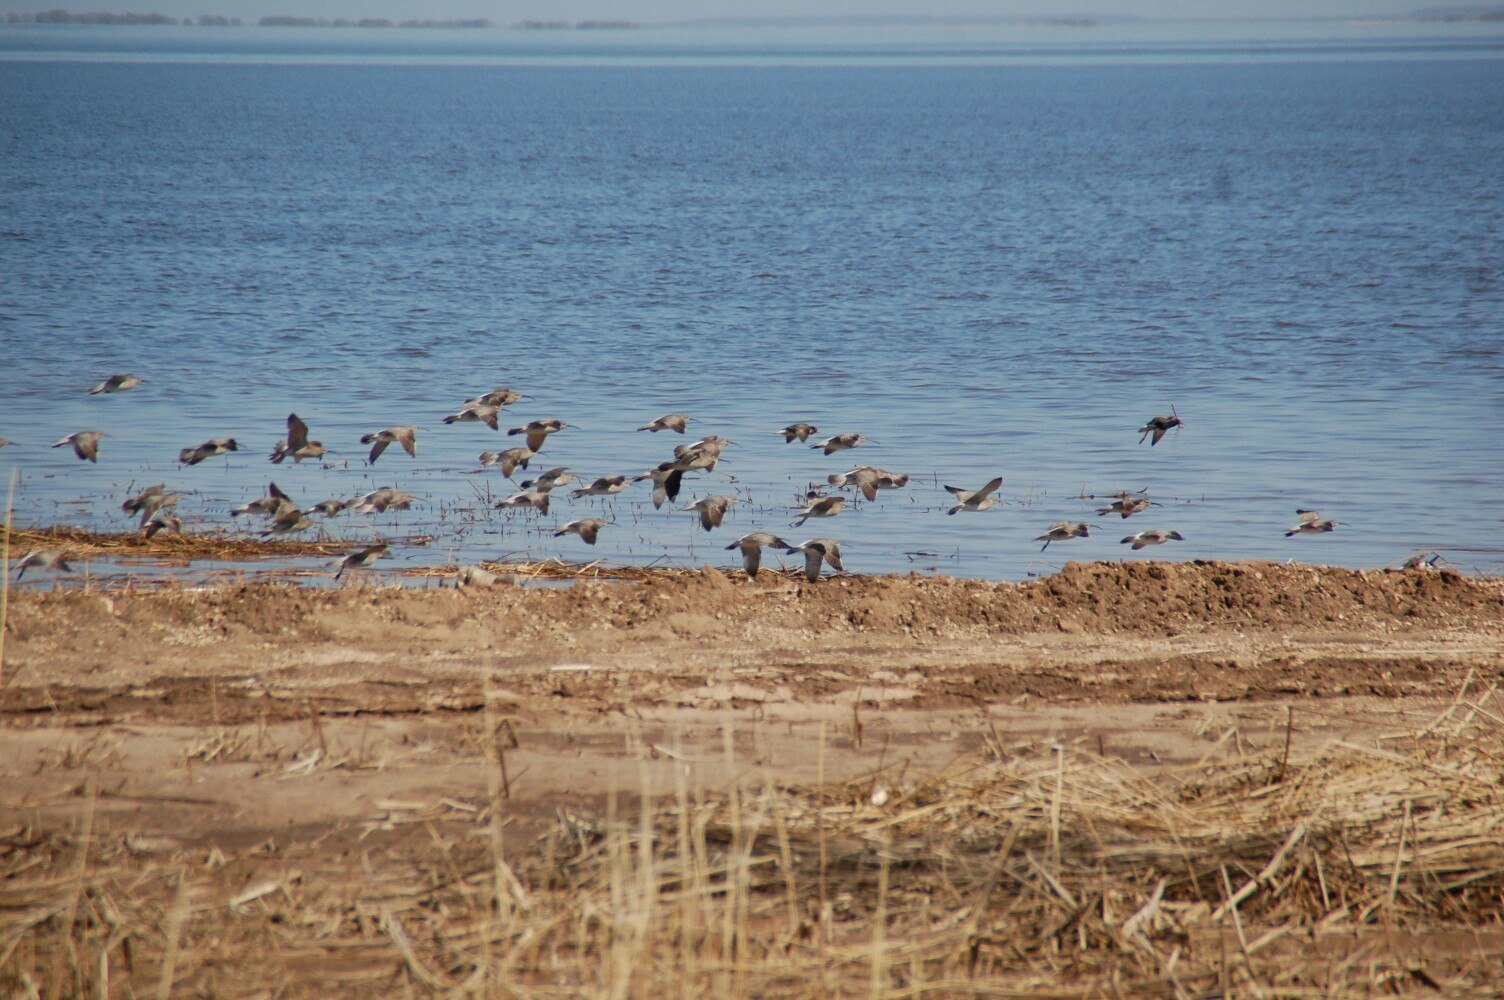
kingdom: Animalia
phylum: Chordata
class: Aves
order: Charadriiformes
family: Scolopacidae
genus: Numenius
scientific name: Numenius arquata
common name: Eurasian curlew
